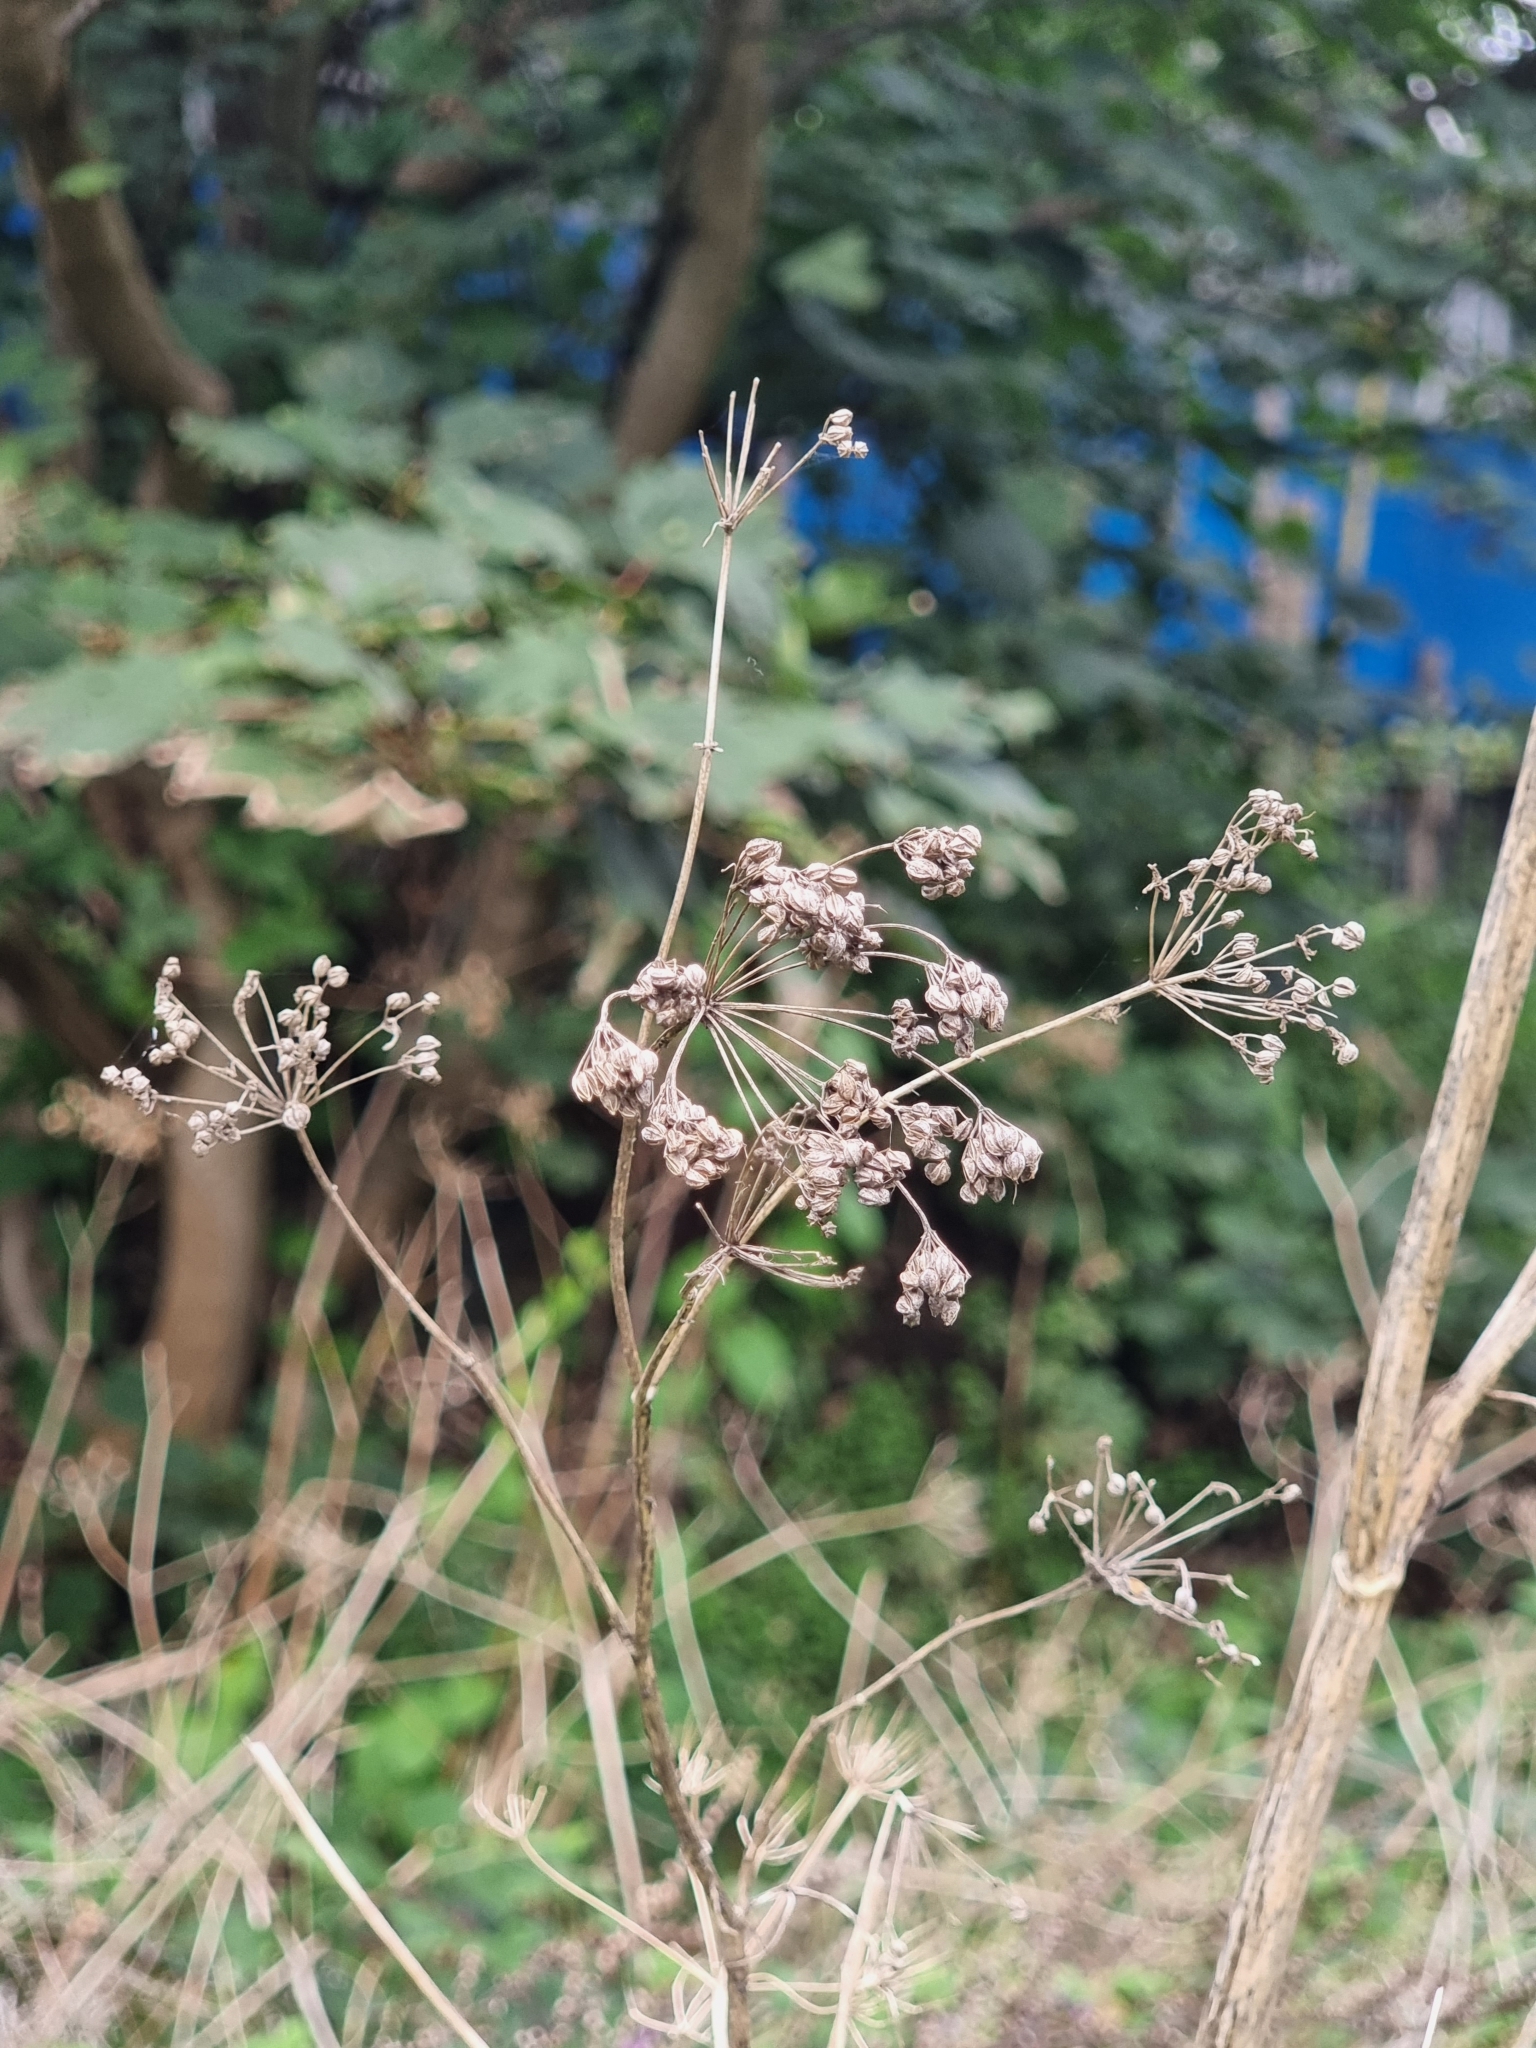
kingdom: Plantae
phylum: Tracheophyta
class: Magnoliopsida
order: Apiales
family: Apiaceae
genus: Conium
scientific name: Conium maculatum
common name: Hemlock
